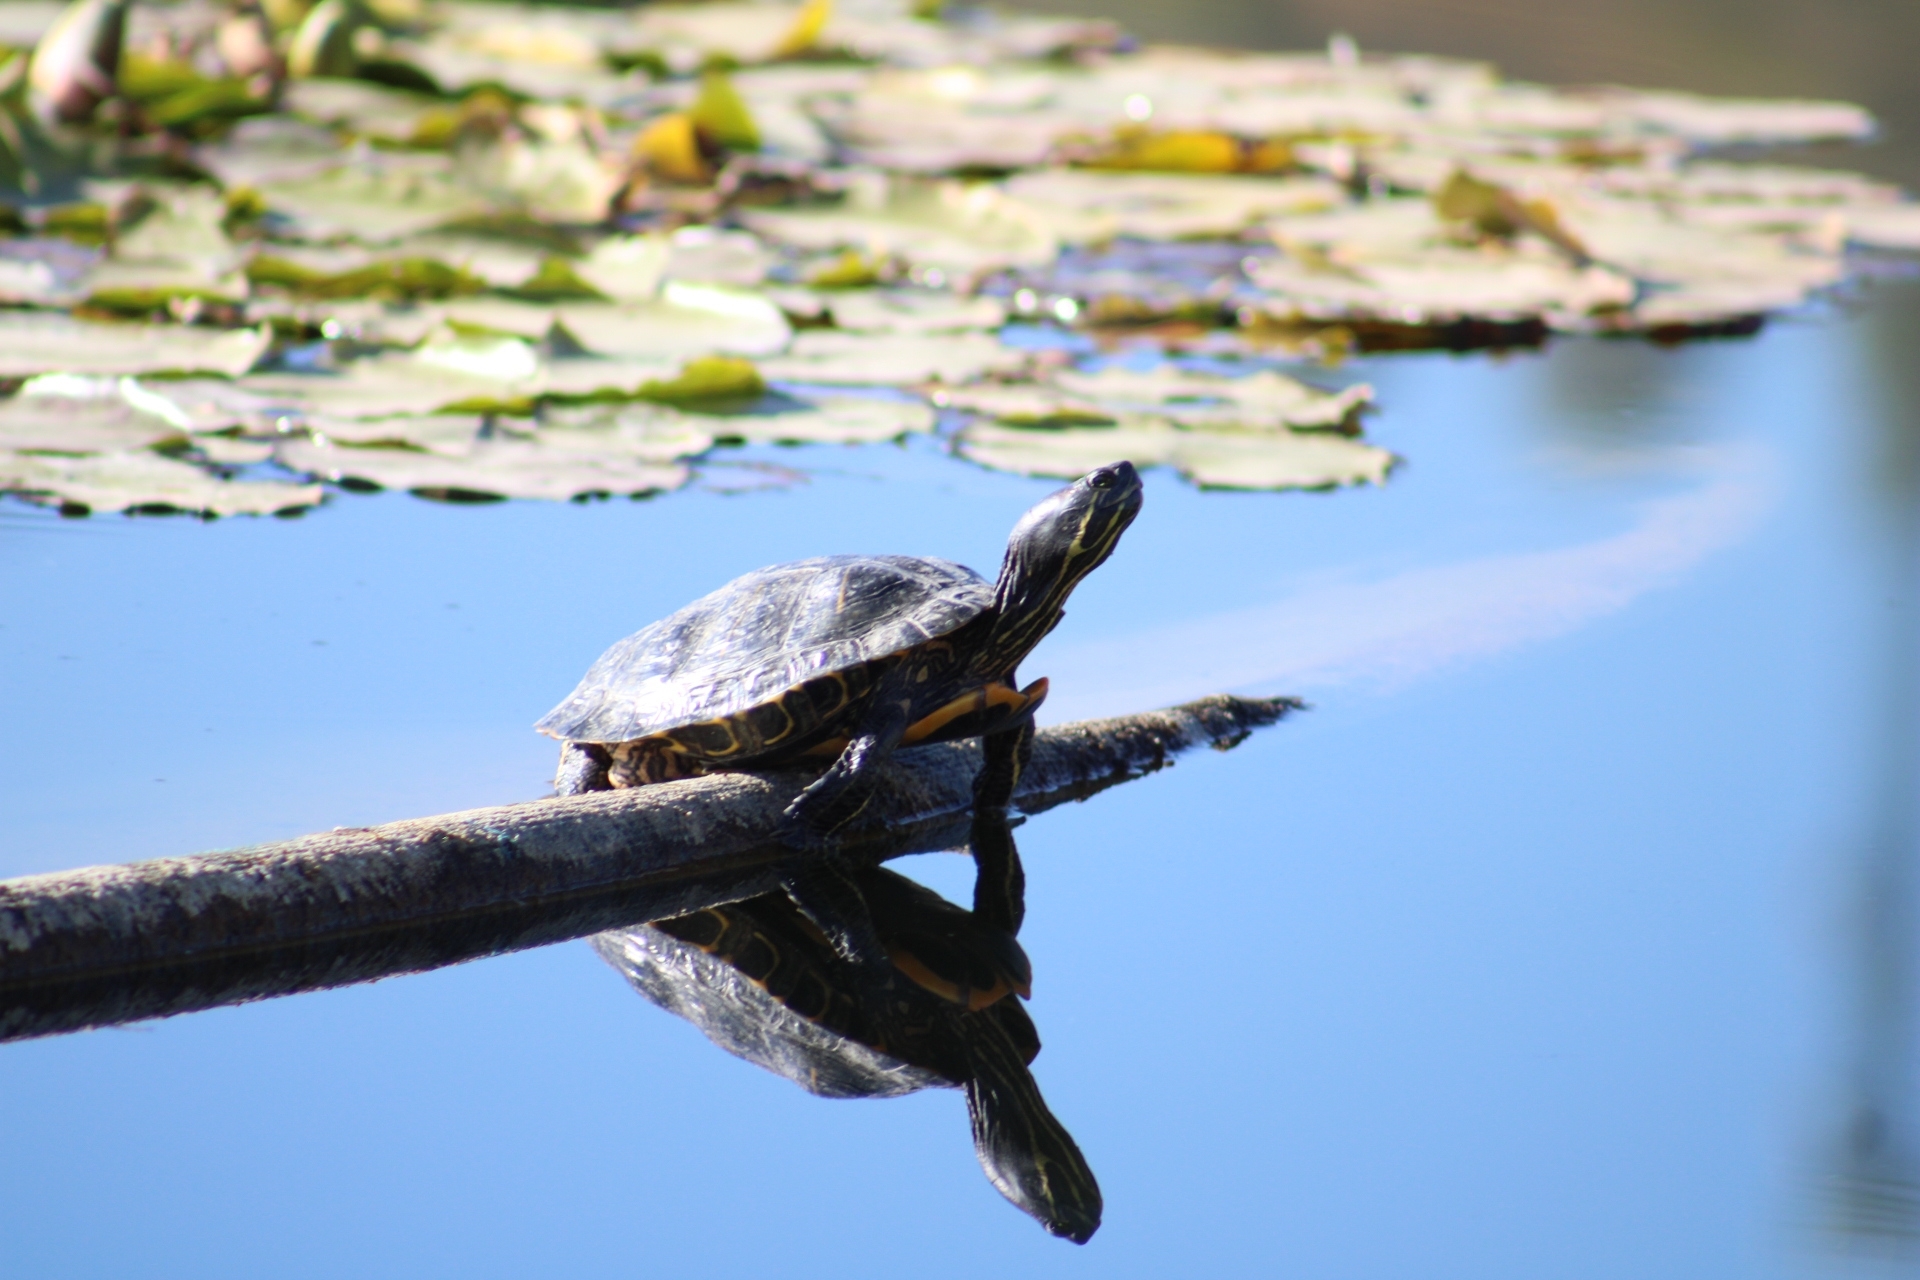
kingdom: Animalia
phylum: Chordata
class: Testudines
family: Emydidae
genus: Trachemys
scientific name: Trachemys scripta
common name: Slider
